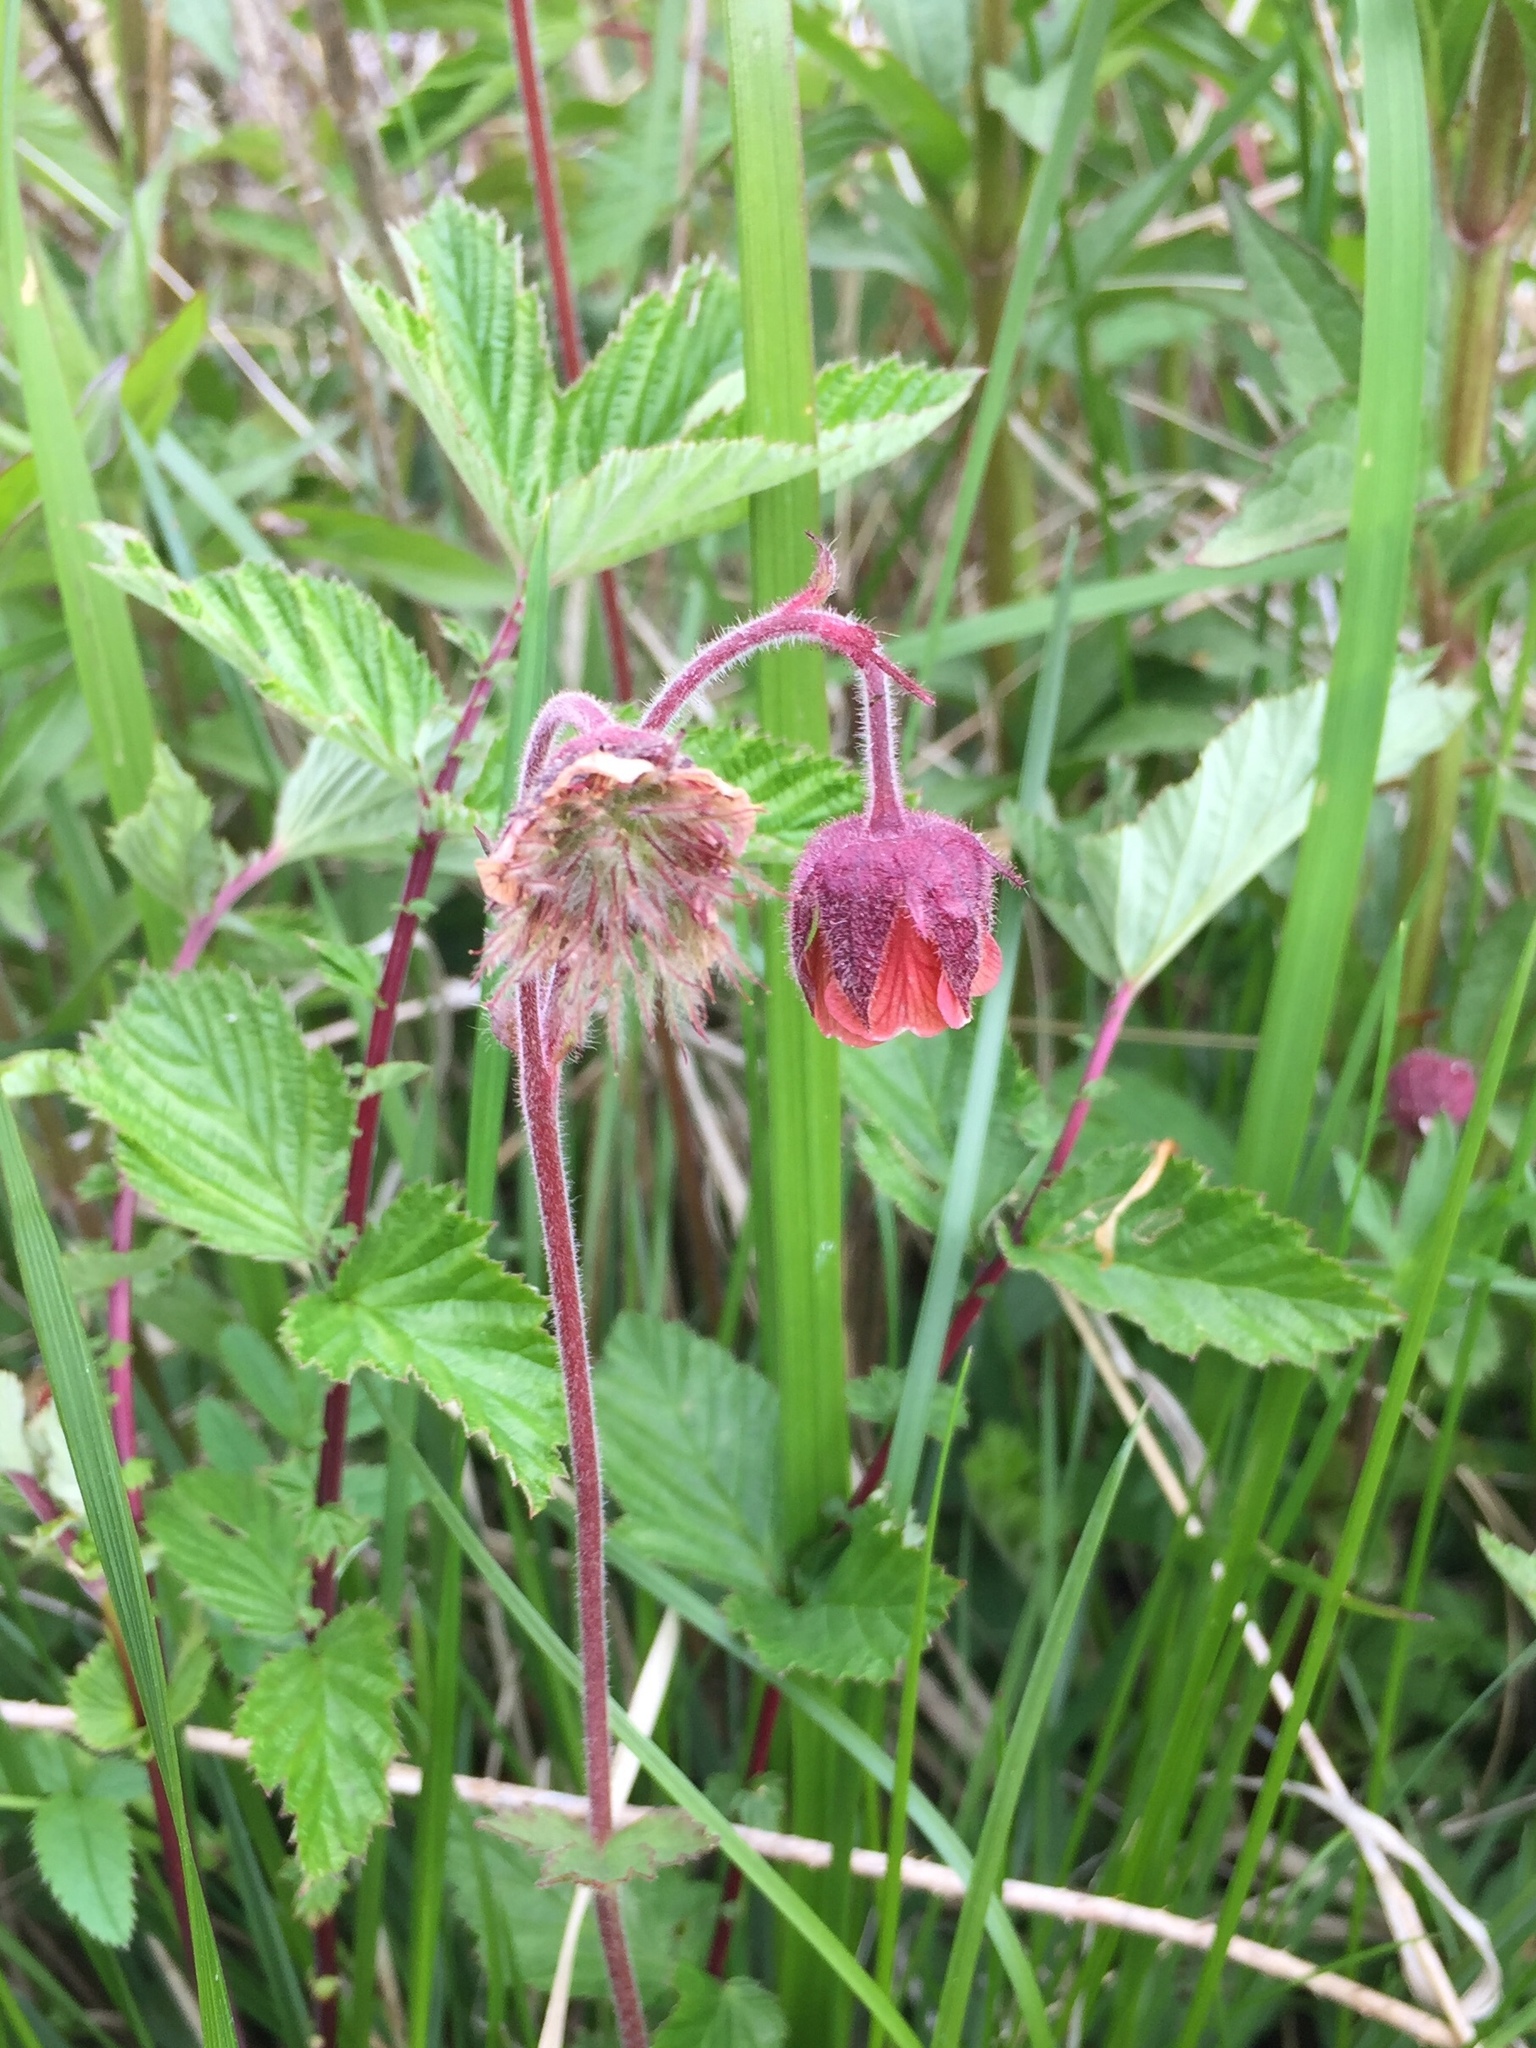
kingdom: Plantae
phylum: Tracheophyta
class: Magnoliopsida
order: Rosales
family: Rosaceae
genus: Geum
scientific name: Geum rivale
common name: Water avens
